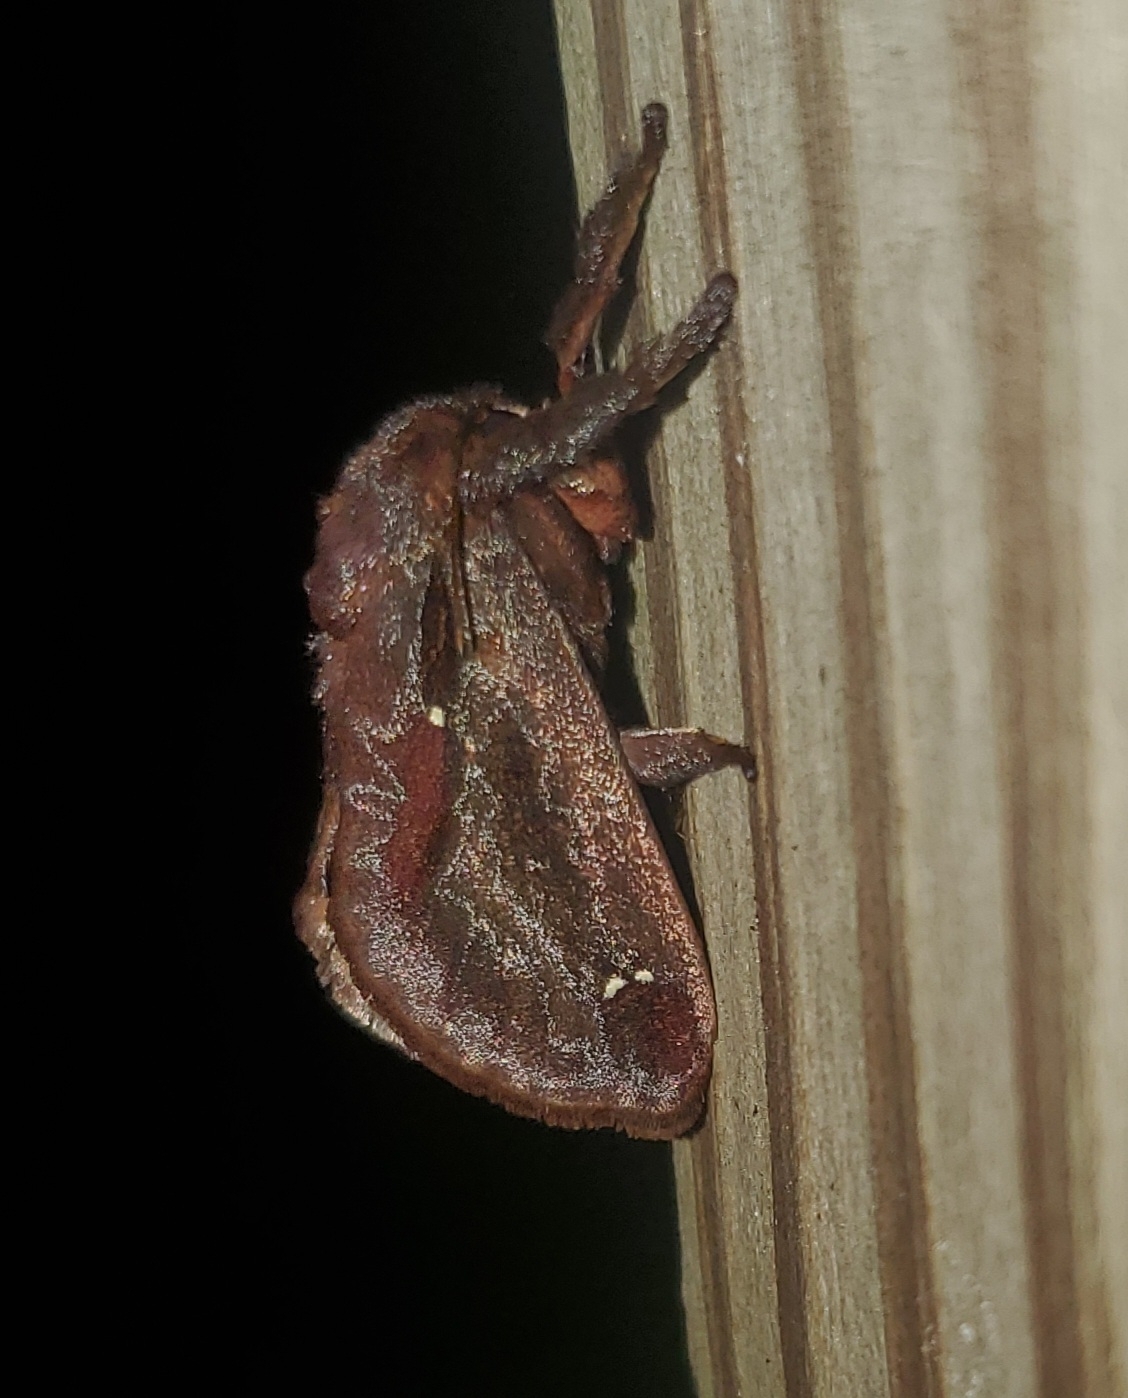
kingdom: Animalia
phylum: Arthropoda
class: Insecta
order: Lepidoptera
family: Limacodidae
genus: Acharia
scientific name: Acharia stimulea
